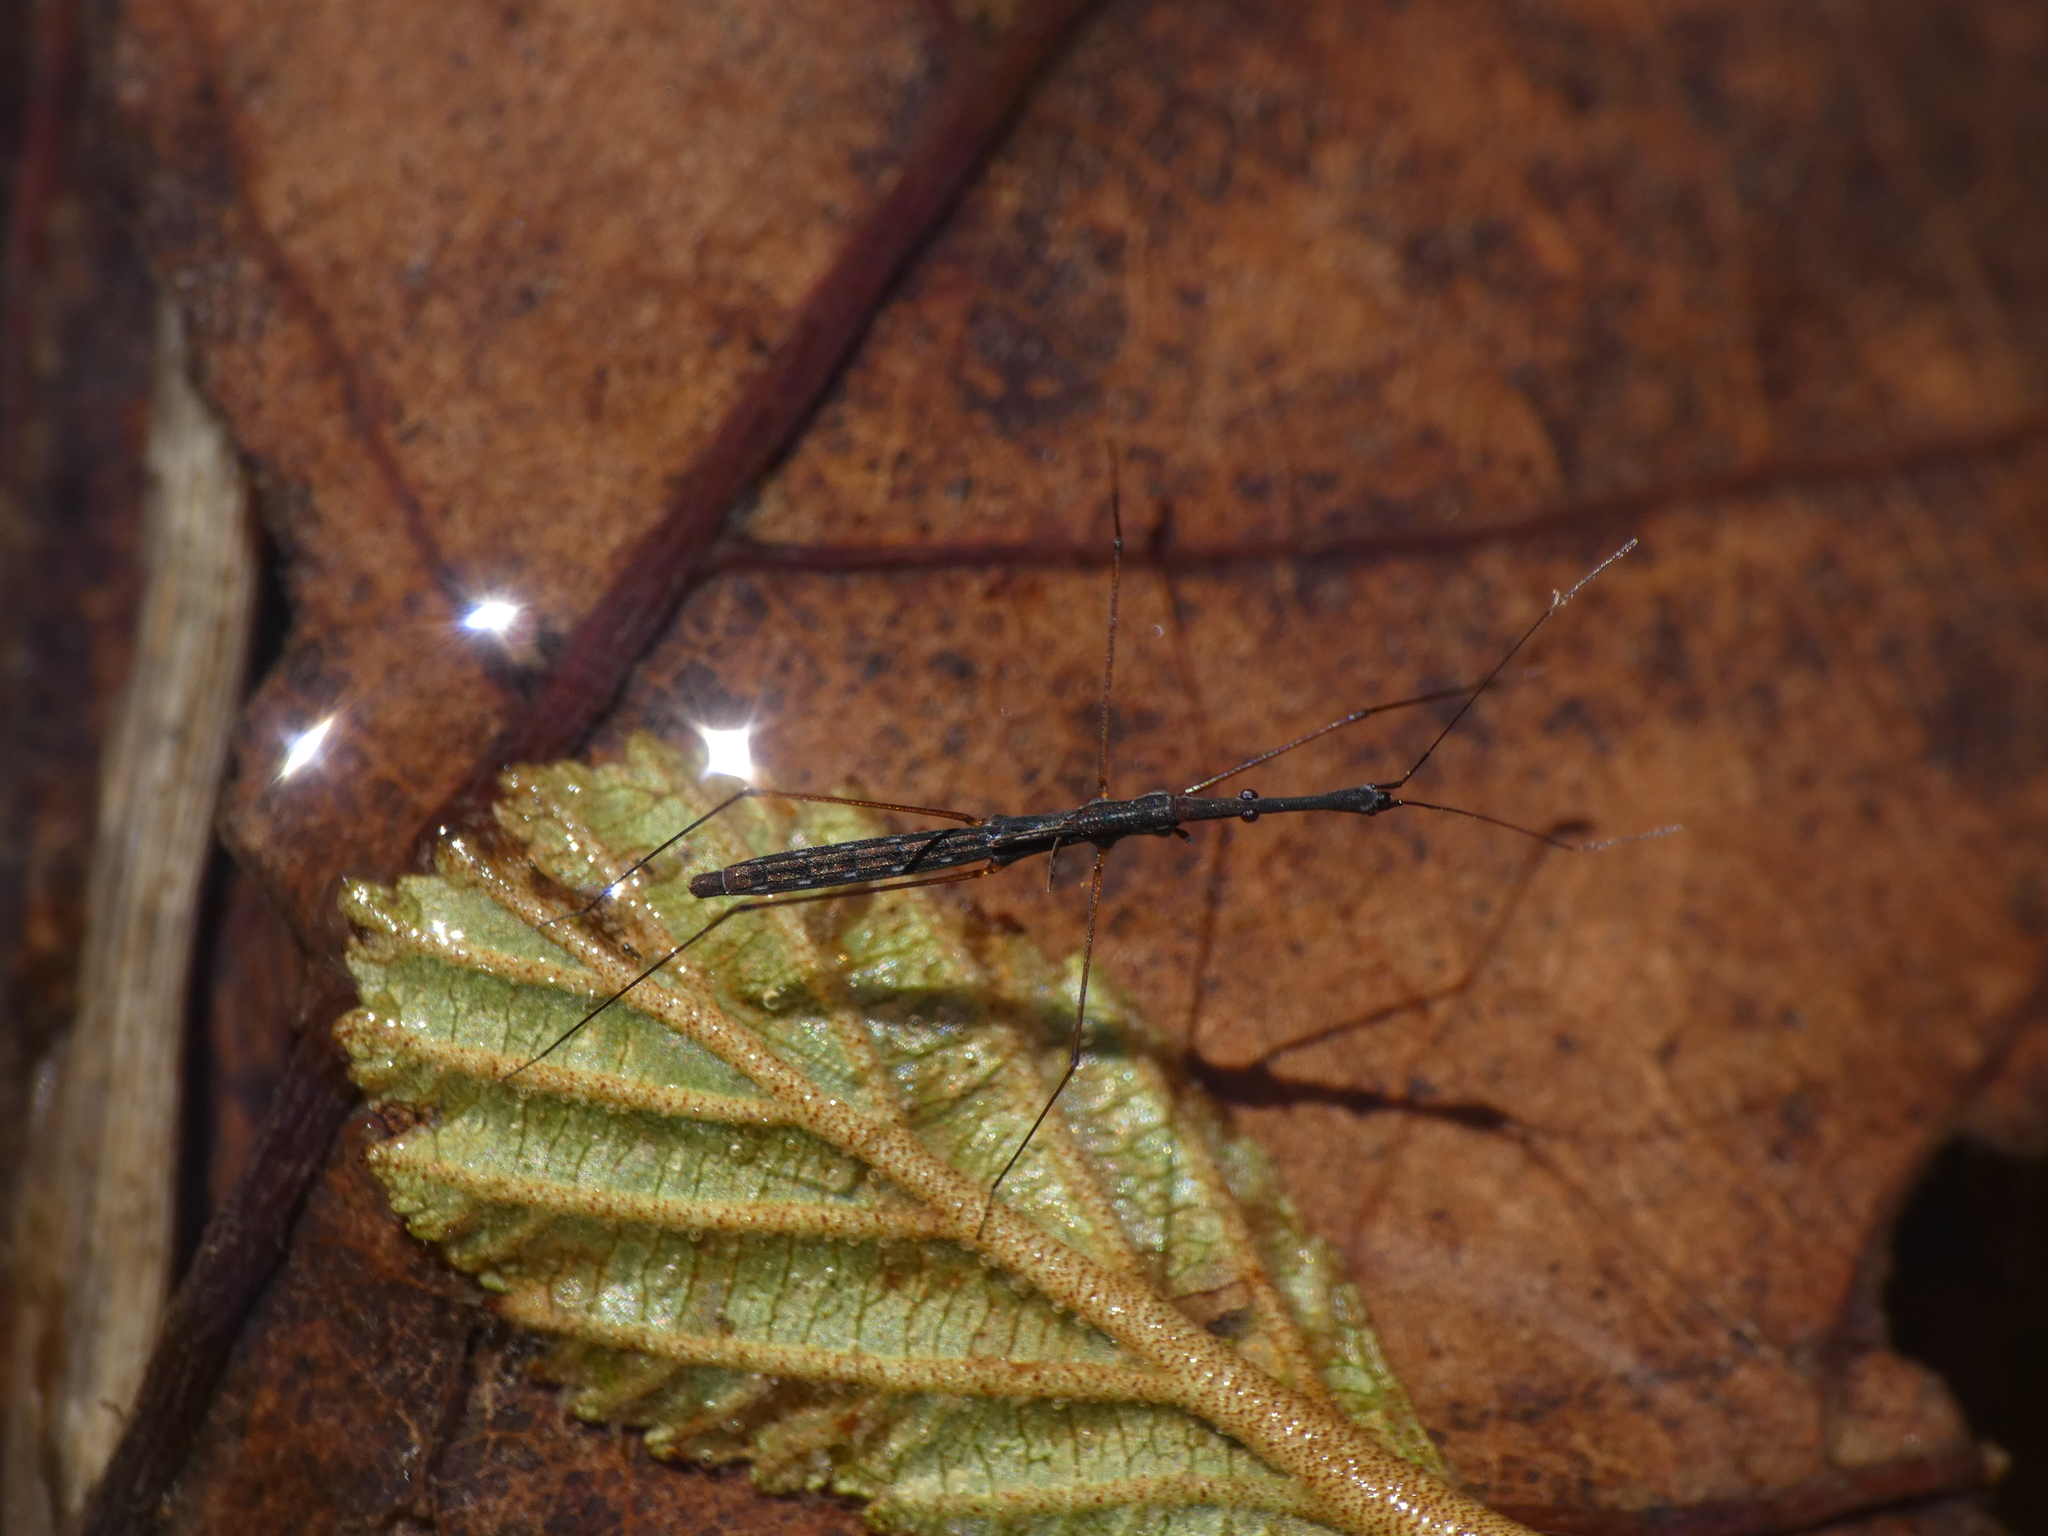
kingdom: Animalia
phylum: Arthropoda
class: Insecta
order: Hemiptera
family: Hydrometridae
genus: Hydrometra
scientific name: Hydrometra stagnorum
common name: Water measurer
